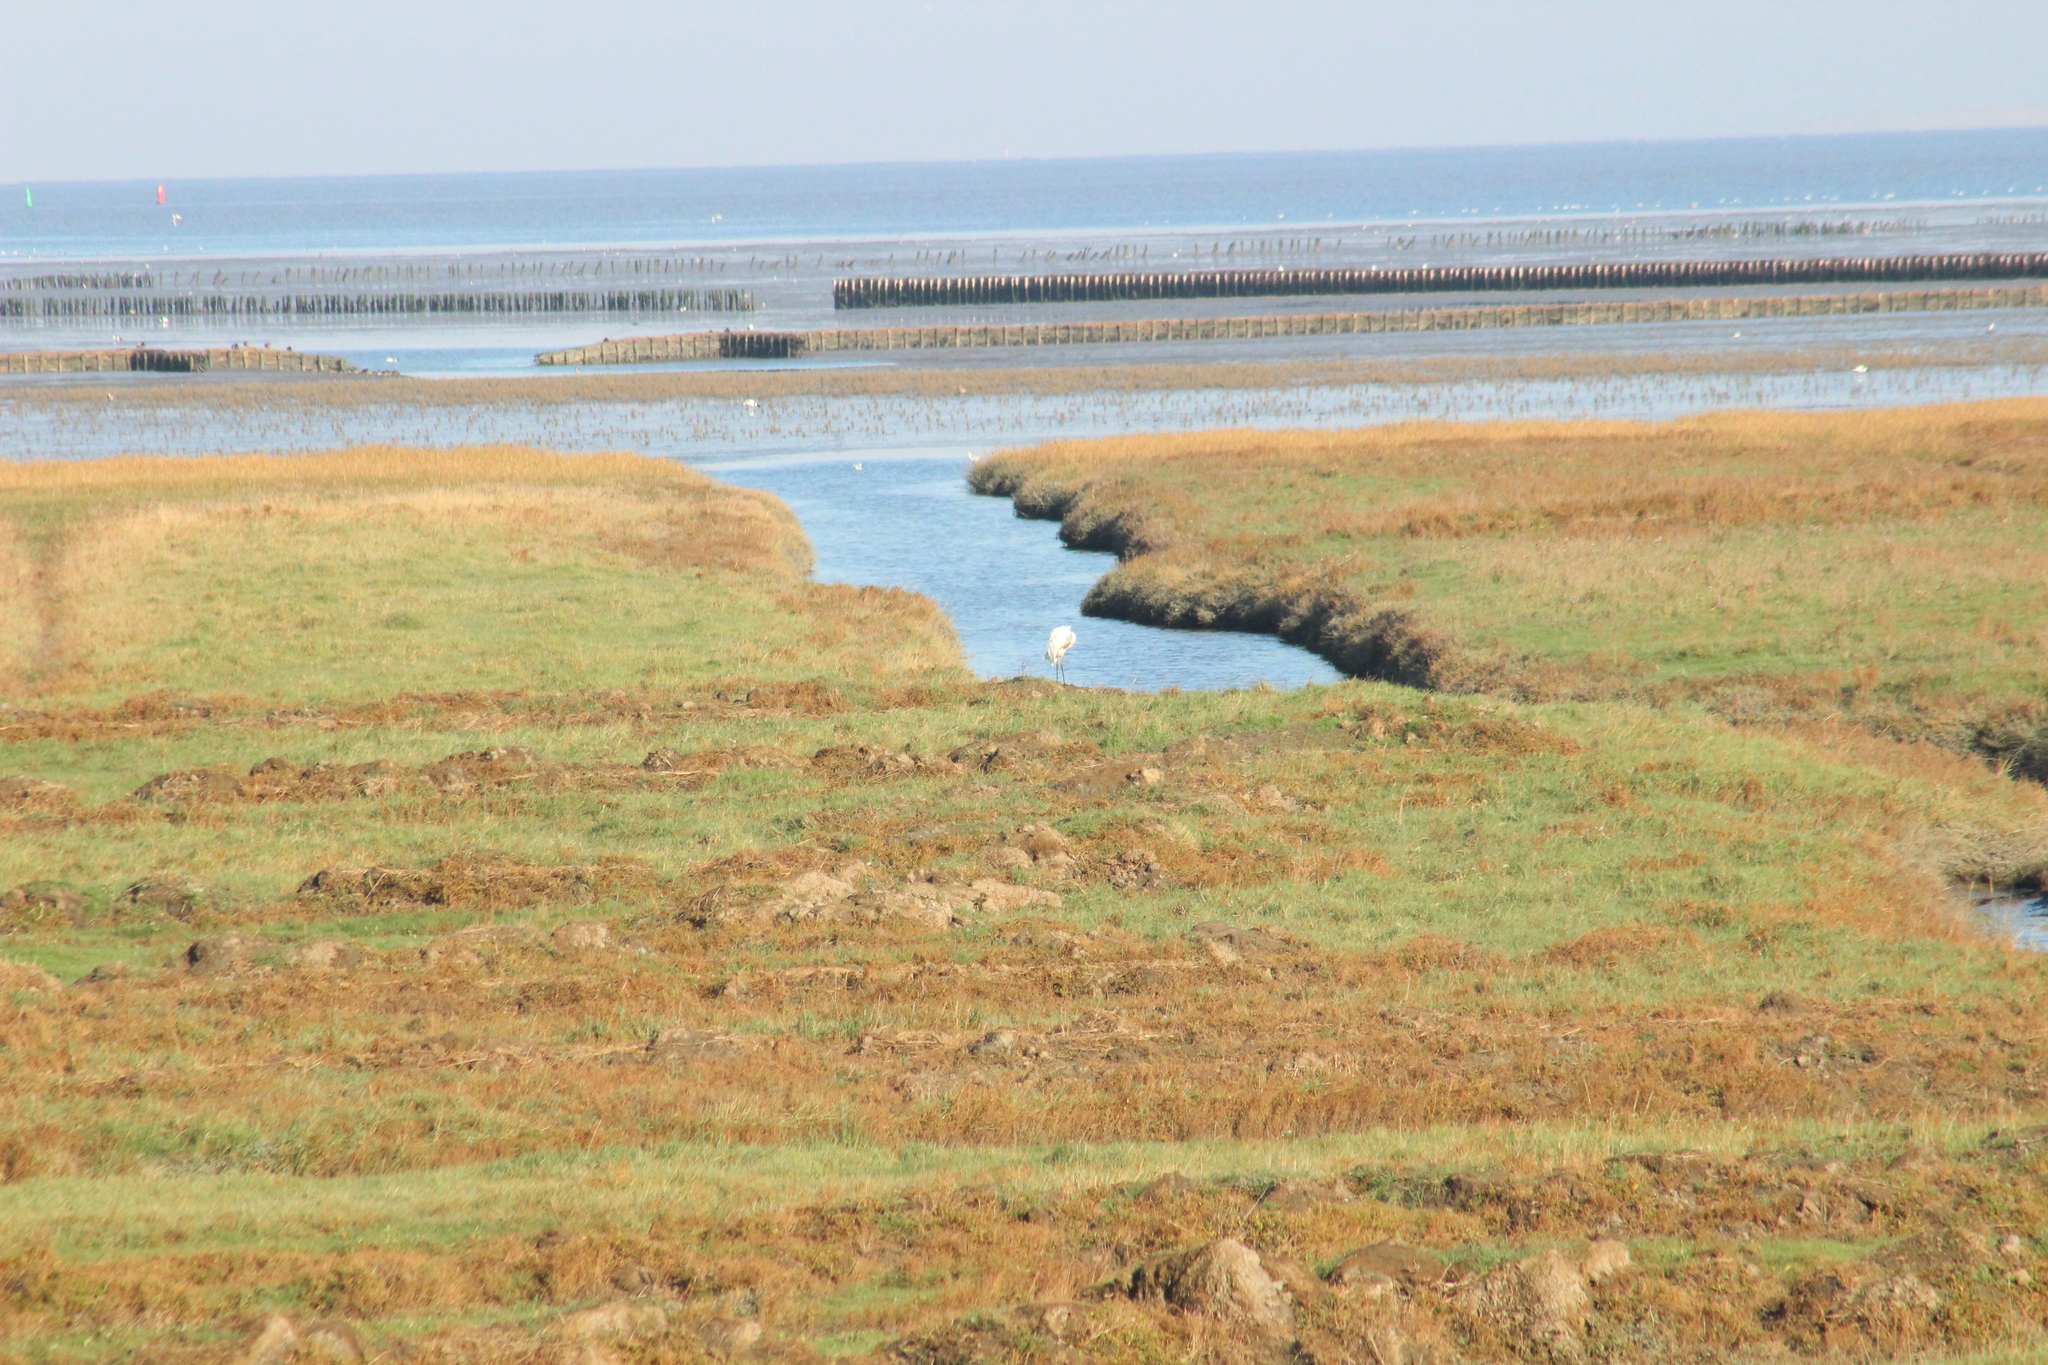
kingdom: Animalia
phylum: Chordata
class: Aves
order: Pelecaniformes
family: Ardeidae
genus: Ardea
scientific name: Ardea alba
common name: Great egret
